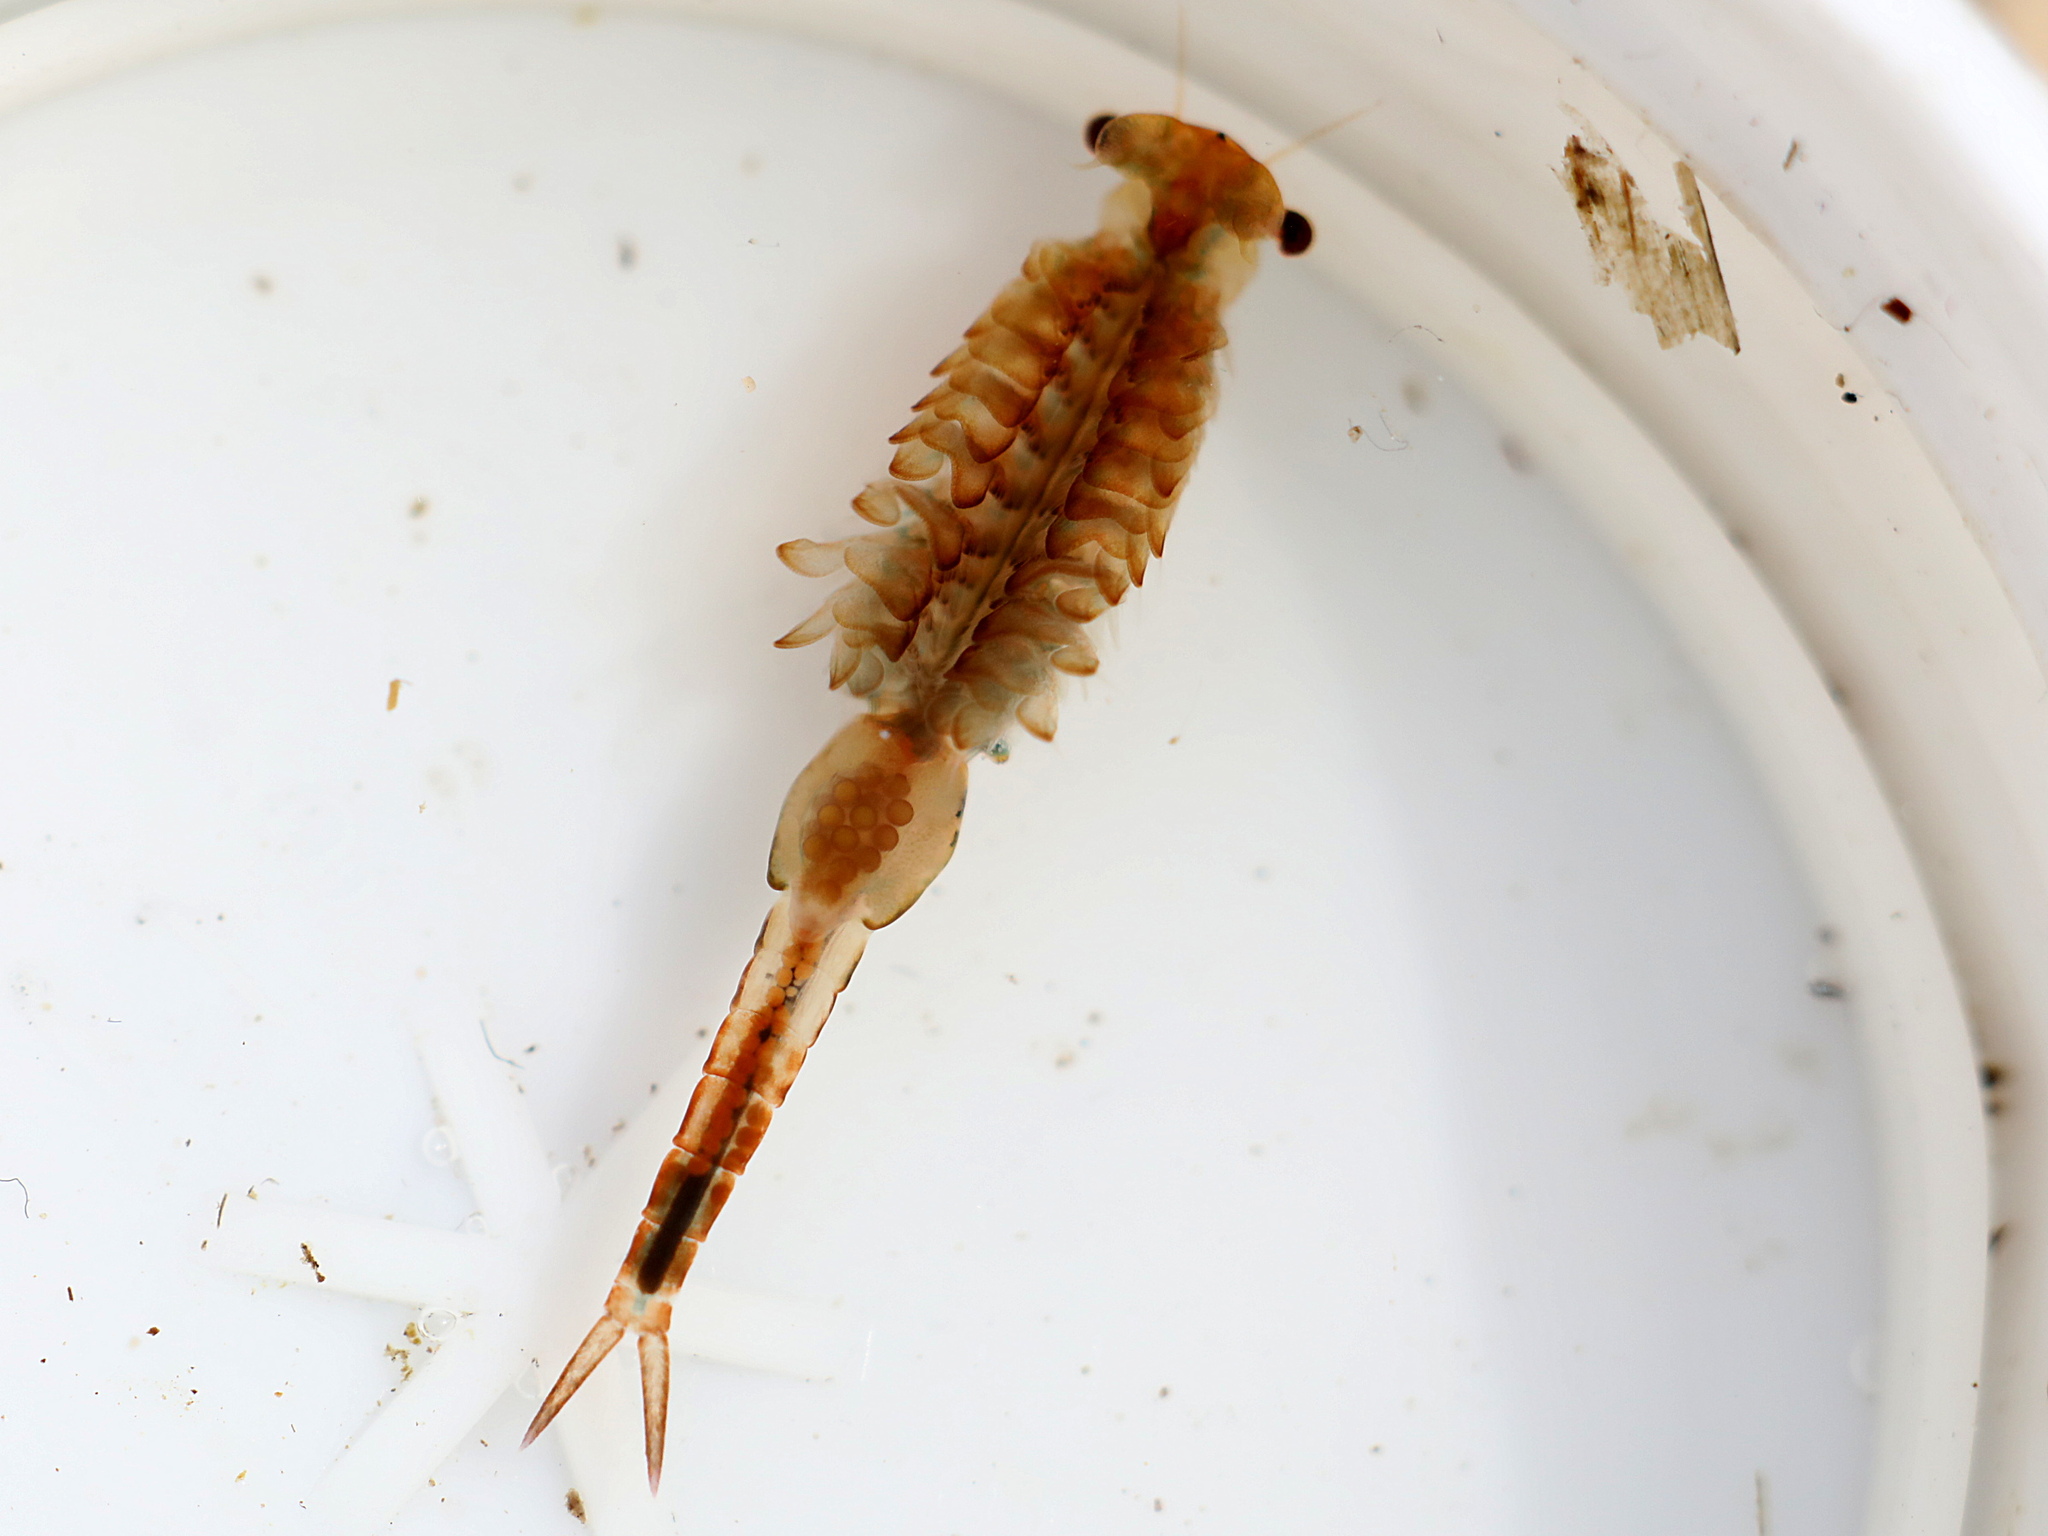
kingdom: Animalia
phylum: Arthropoda
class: Branchiopoda
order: Anostraca
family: Chirocephalidae
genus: Eubranchipus
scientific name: Eubranchipus grubii
